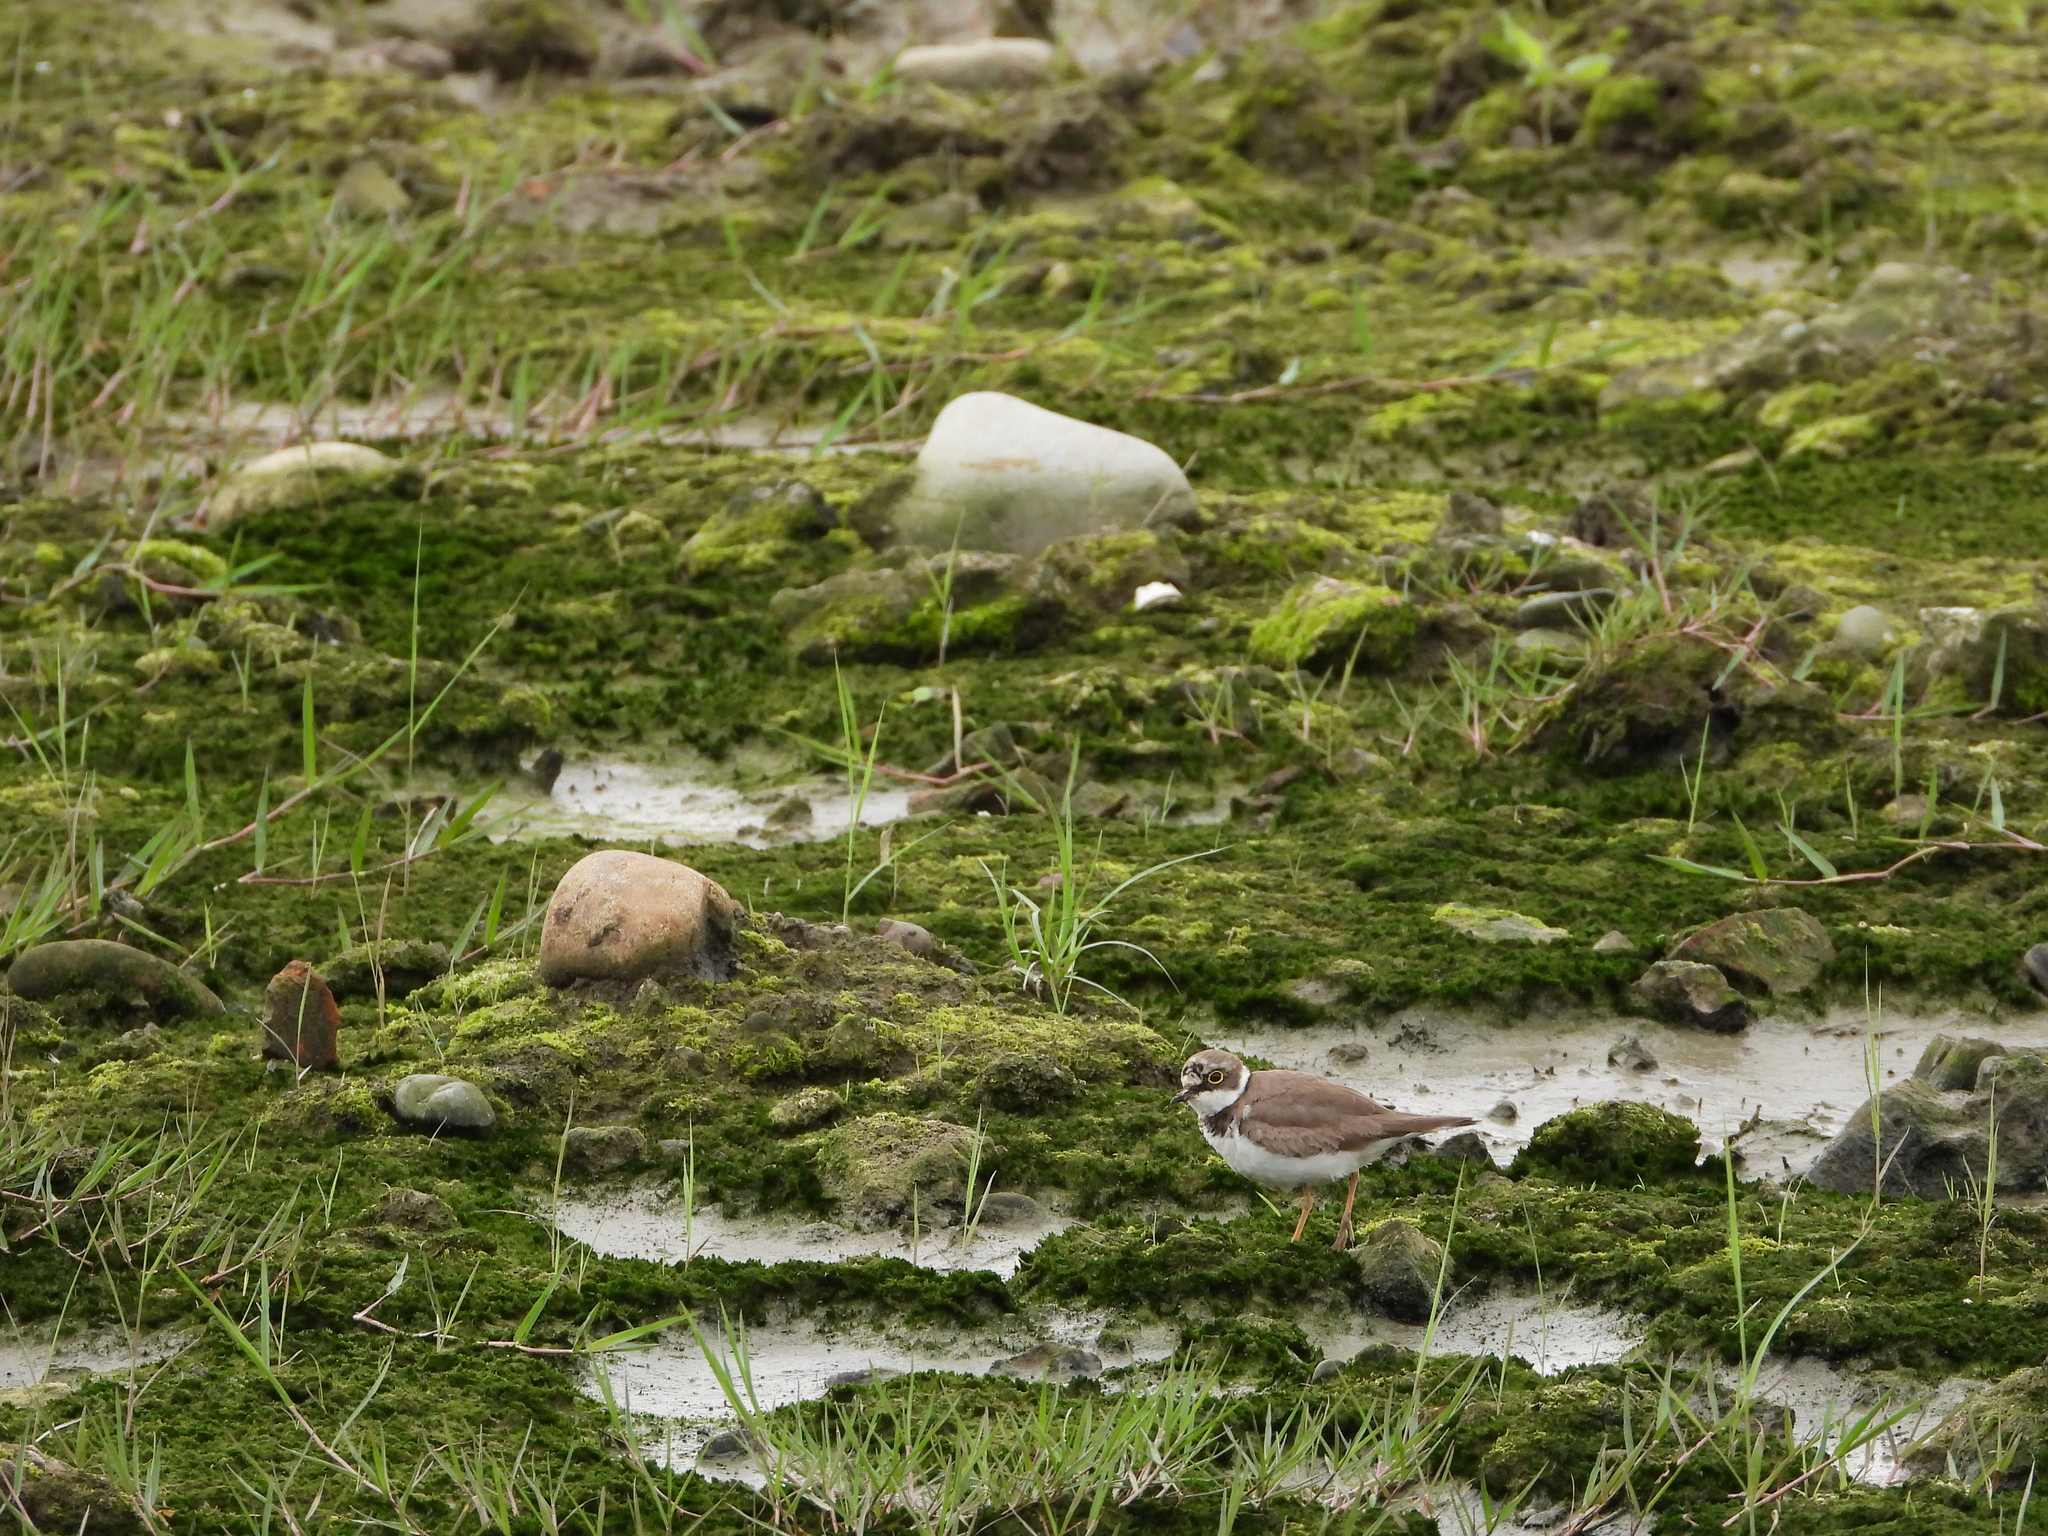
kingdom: Animalia
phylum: Chordata
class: Aves
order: Charadriiformes
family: Charadriidae
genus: Charadrius
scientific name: Charadrius dubius
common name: Little ringed plover
